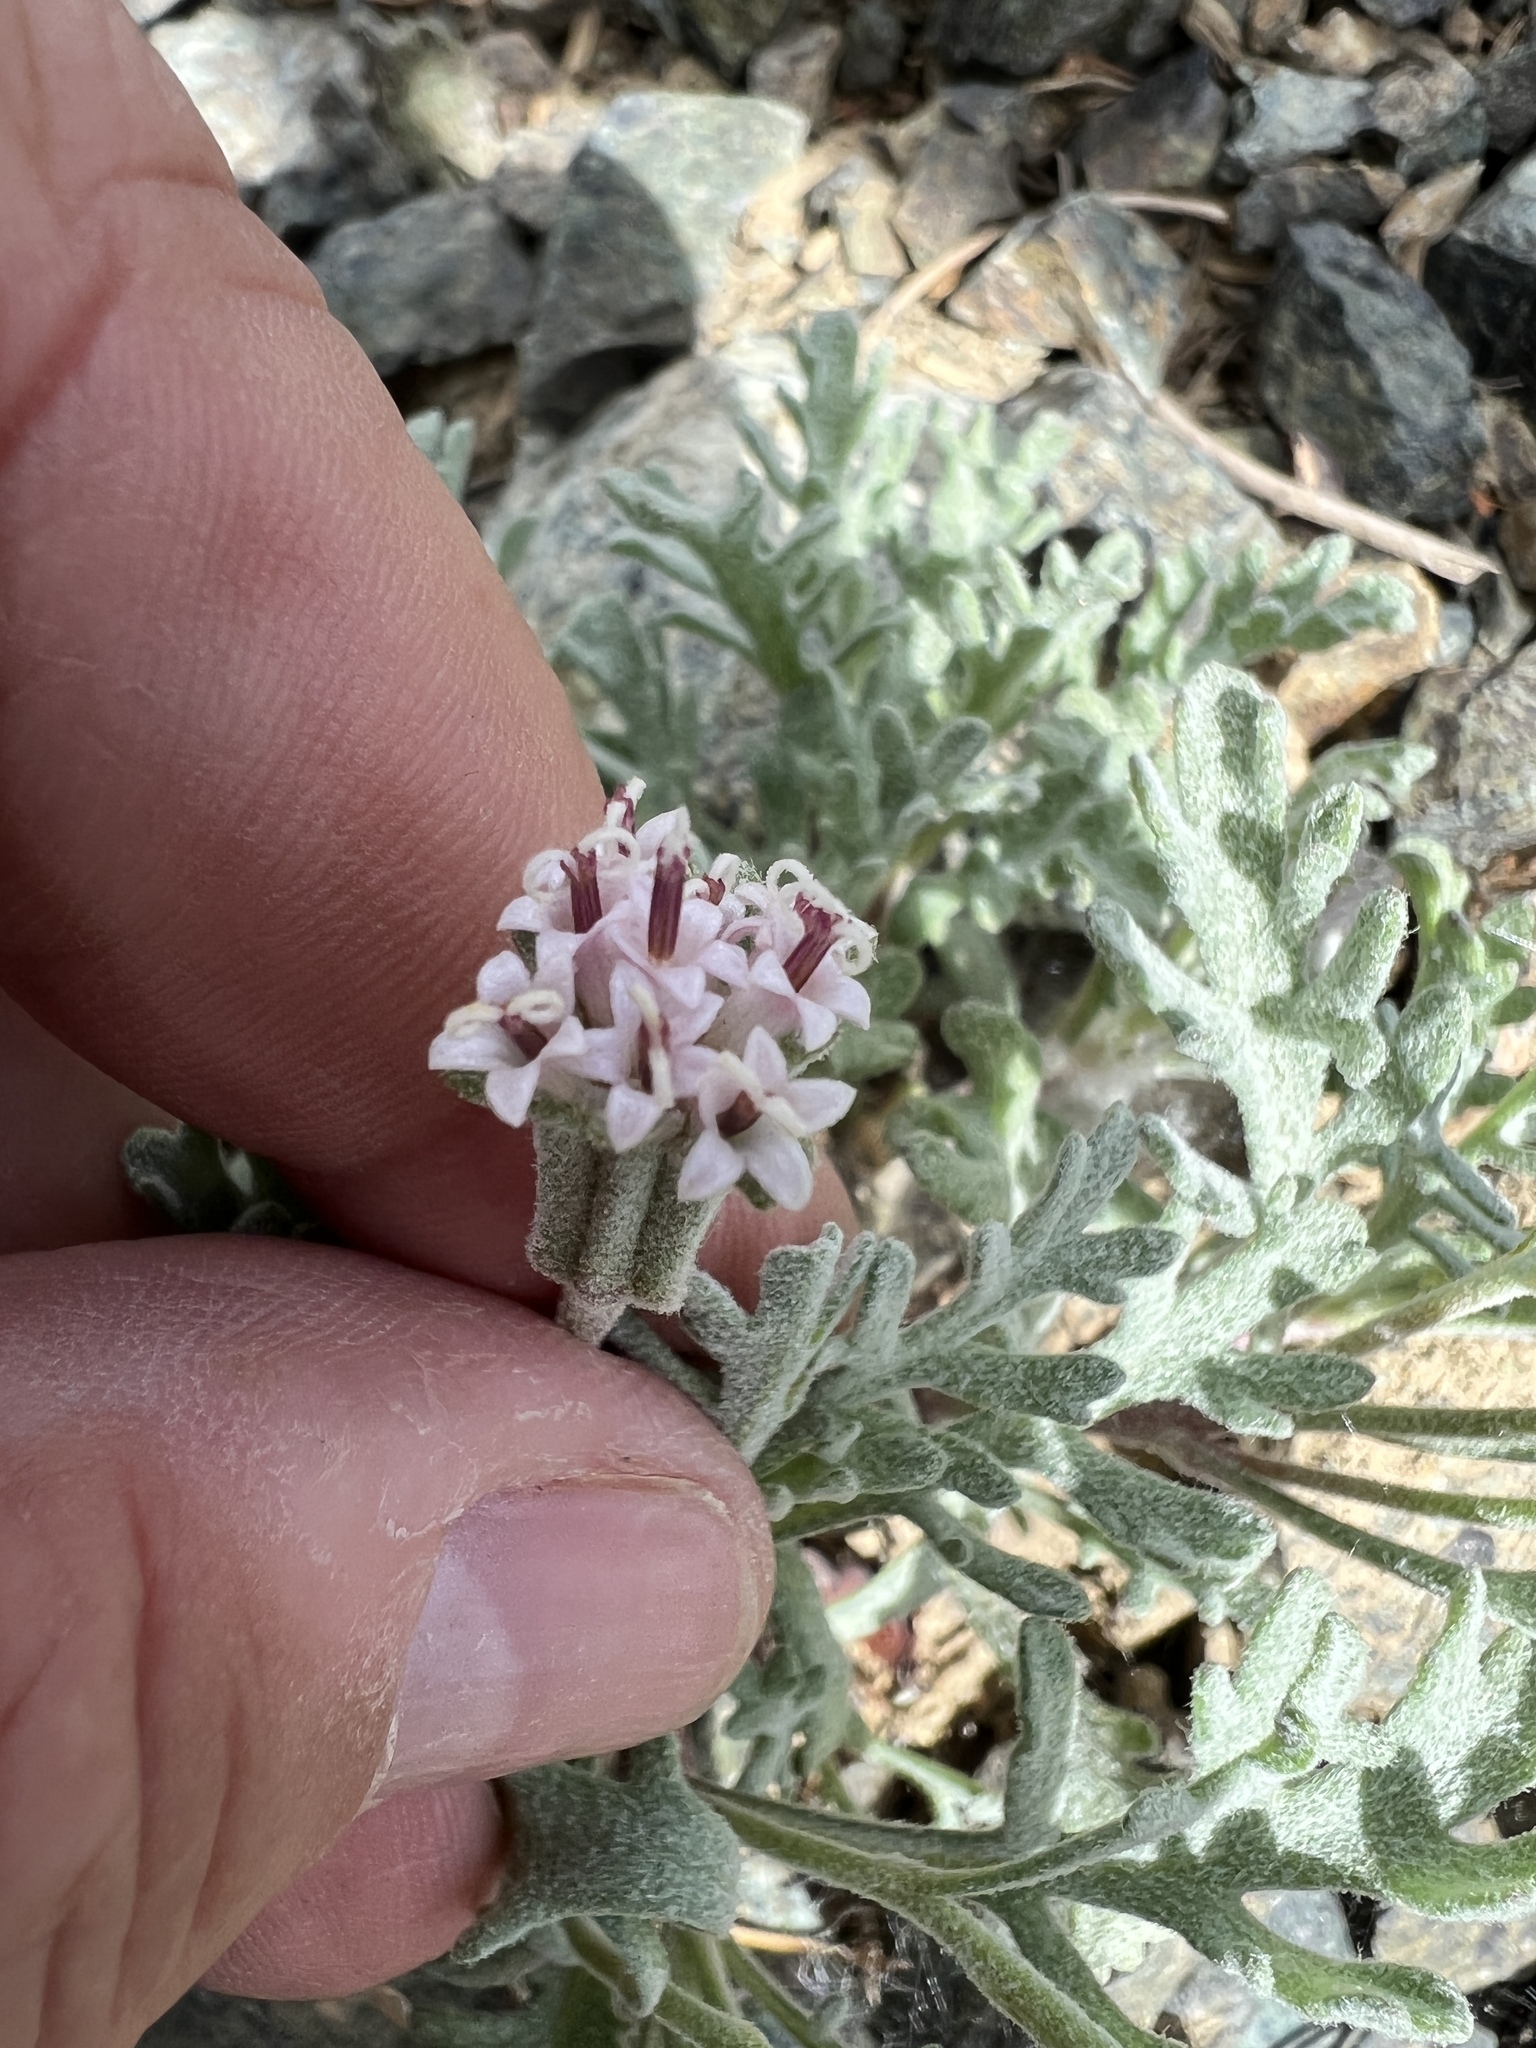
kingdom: Plantae
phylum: Tracheophyta
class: Magnoliopsida
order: Asterales
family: Asteraceae
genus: Chaenactis
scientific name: Chaenactis thompsonii
